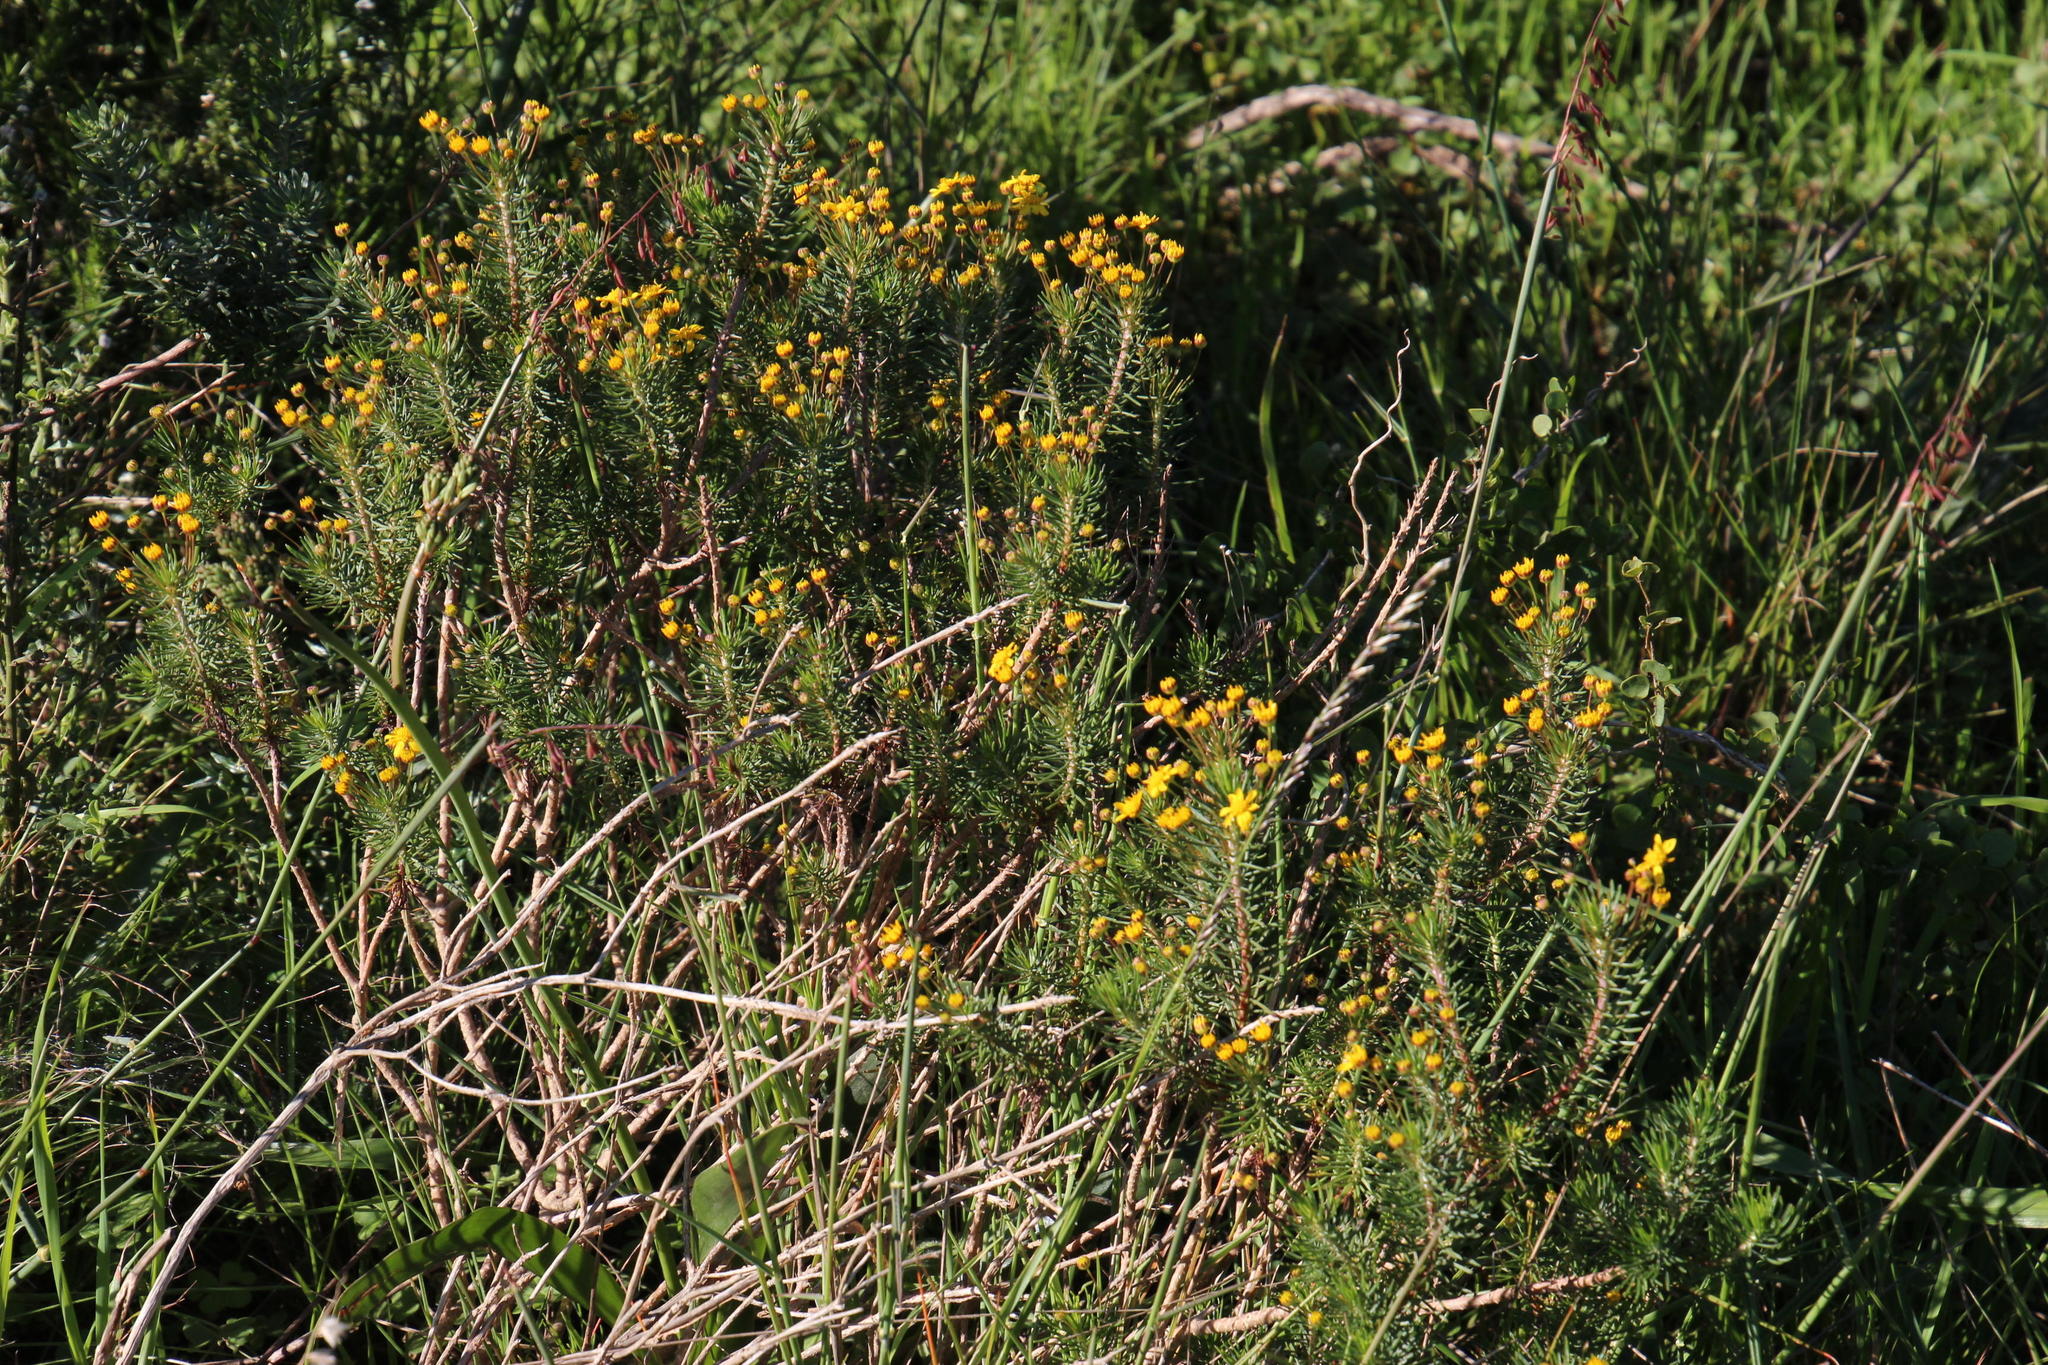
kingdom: Plantae
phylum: Tracheophyta
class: Magnoliopsida
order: Asterales
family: Asteraceae
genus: Euryops
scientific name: Euryops linifolius
